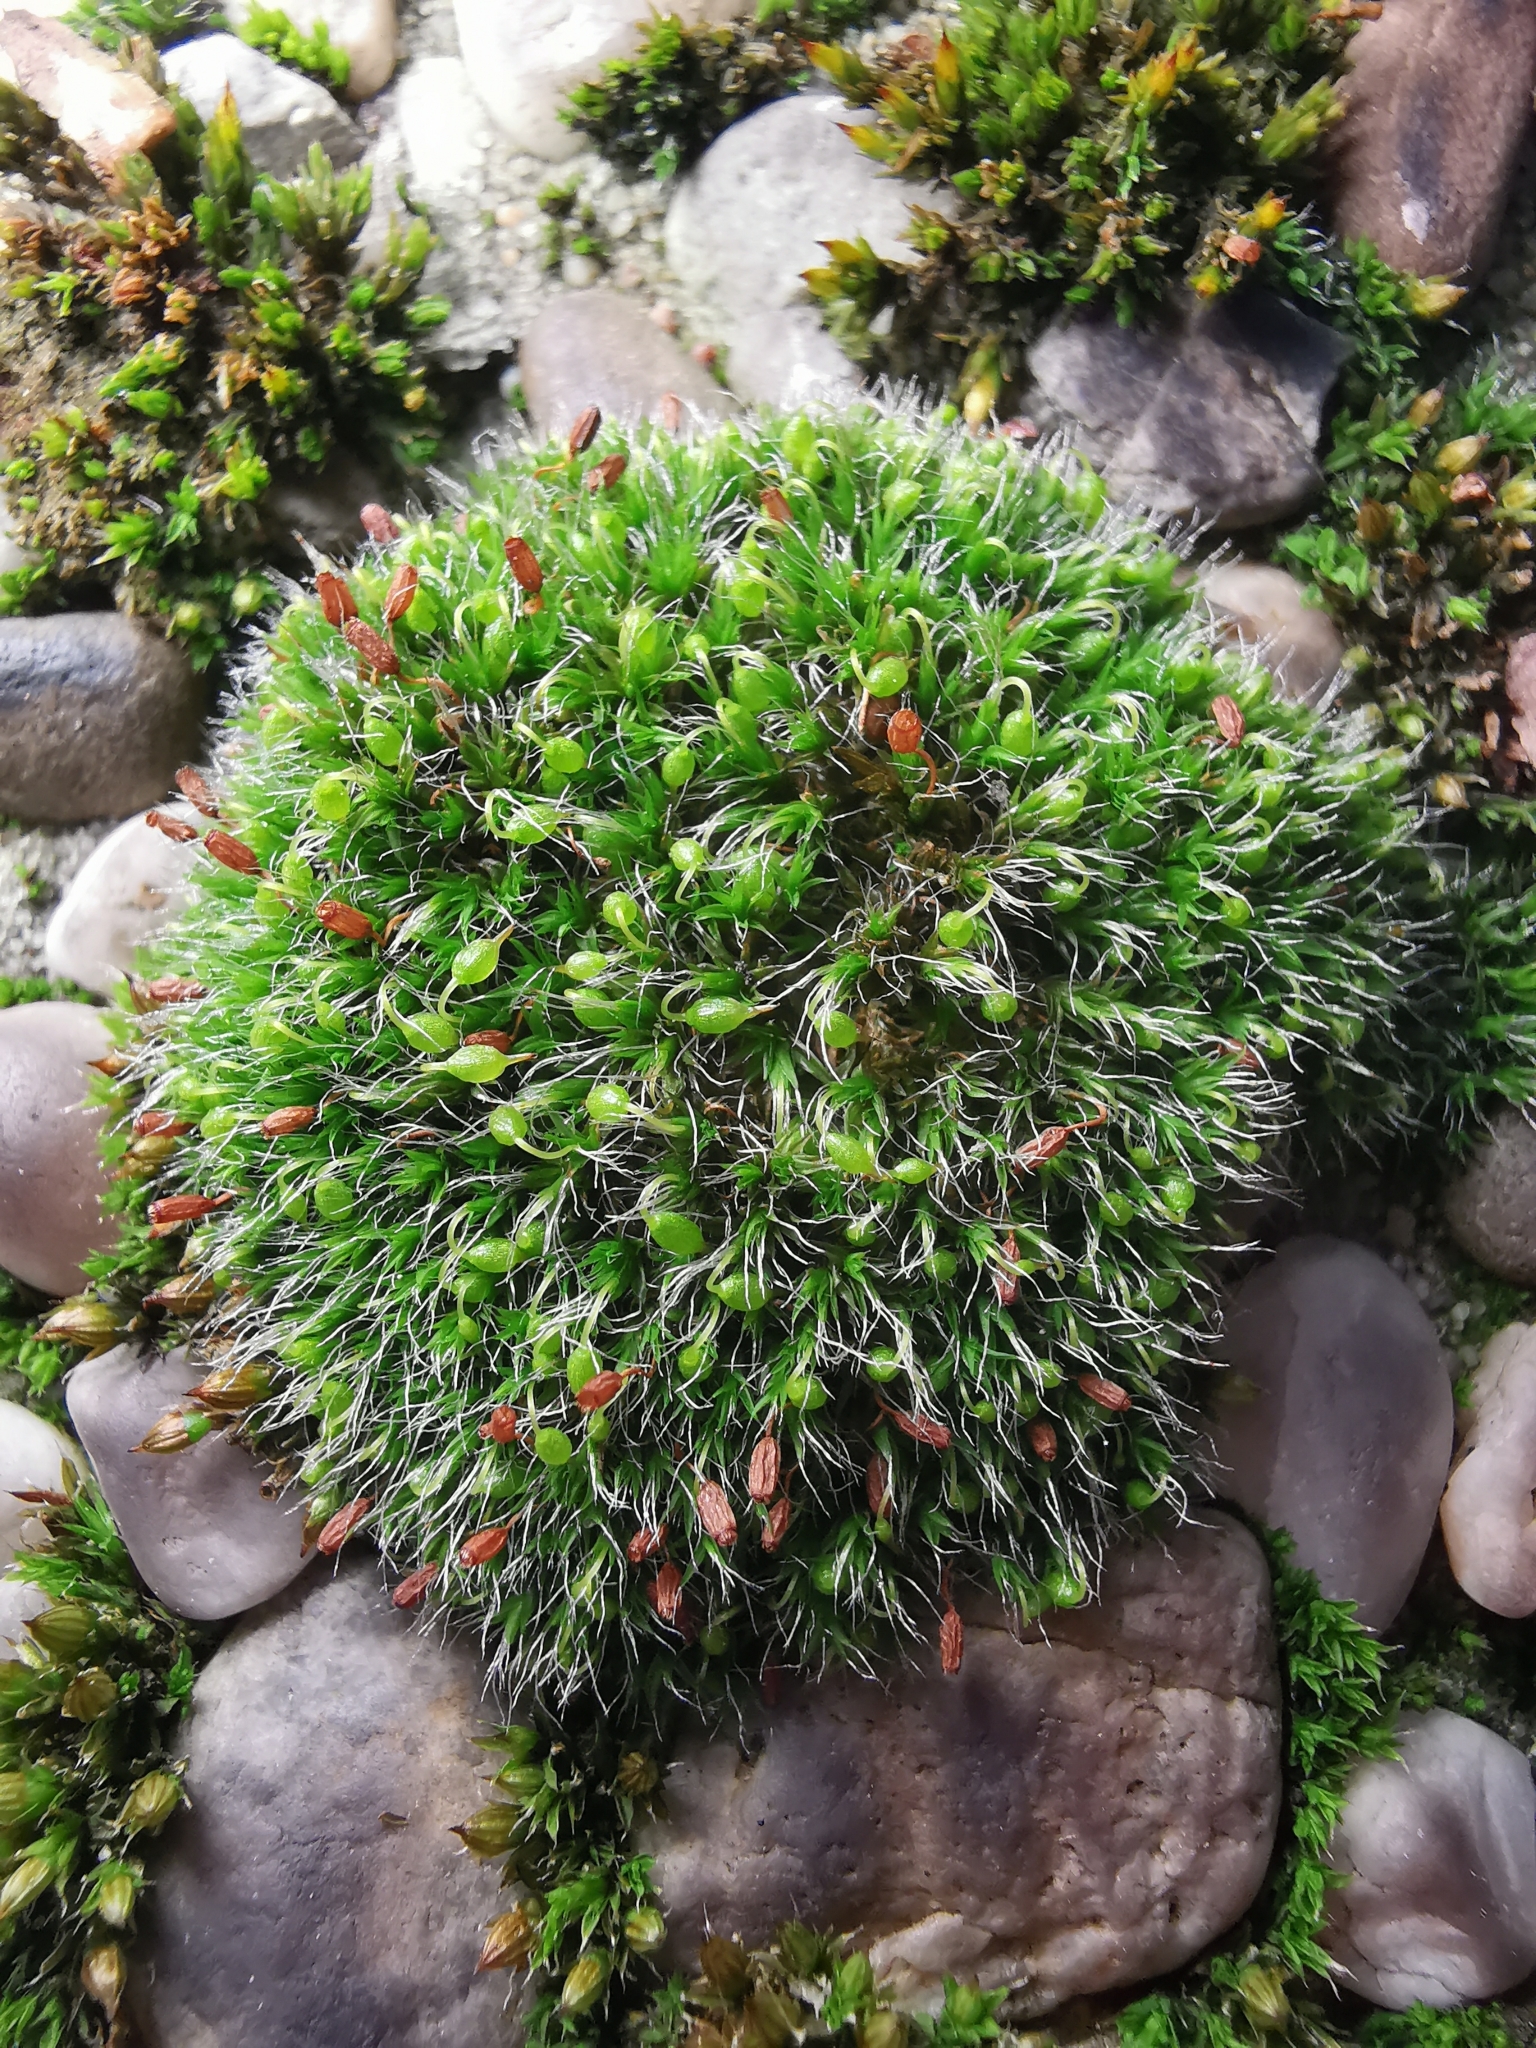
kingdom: Plantae
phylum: Bryophyta
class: Bryopsida
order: Grimmiales
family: Grimmiaceae
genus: Grimmia
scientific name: Grimmia pulvinata
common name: Grey-cushioned grimmia
